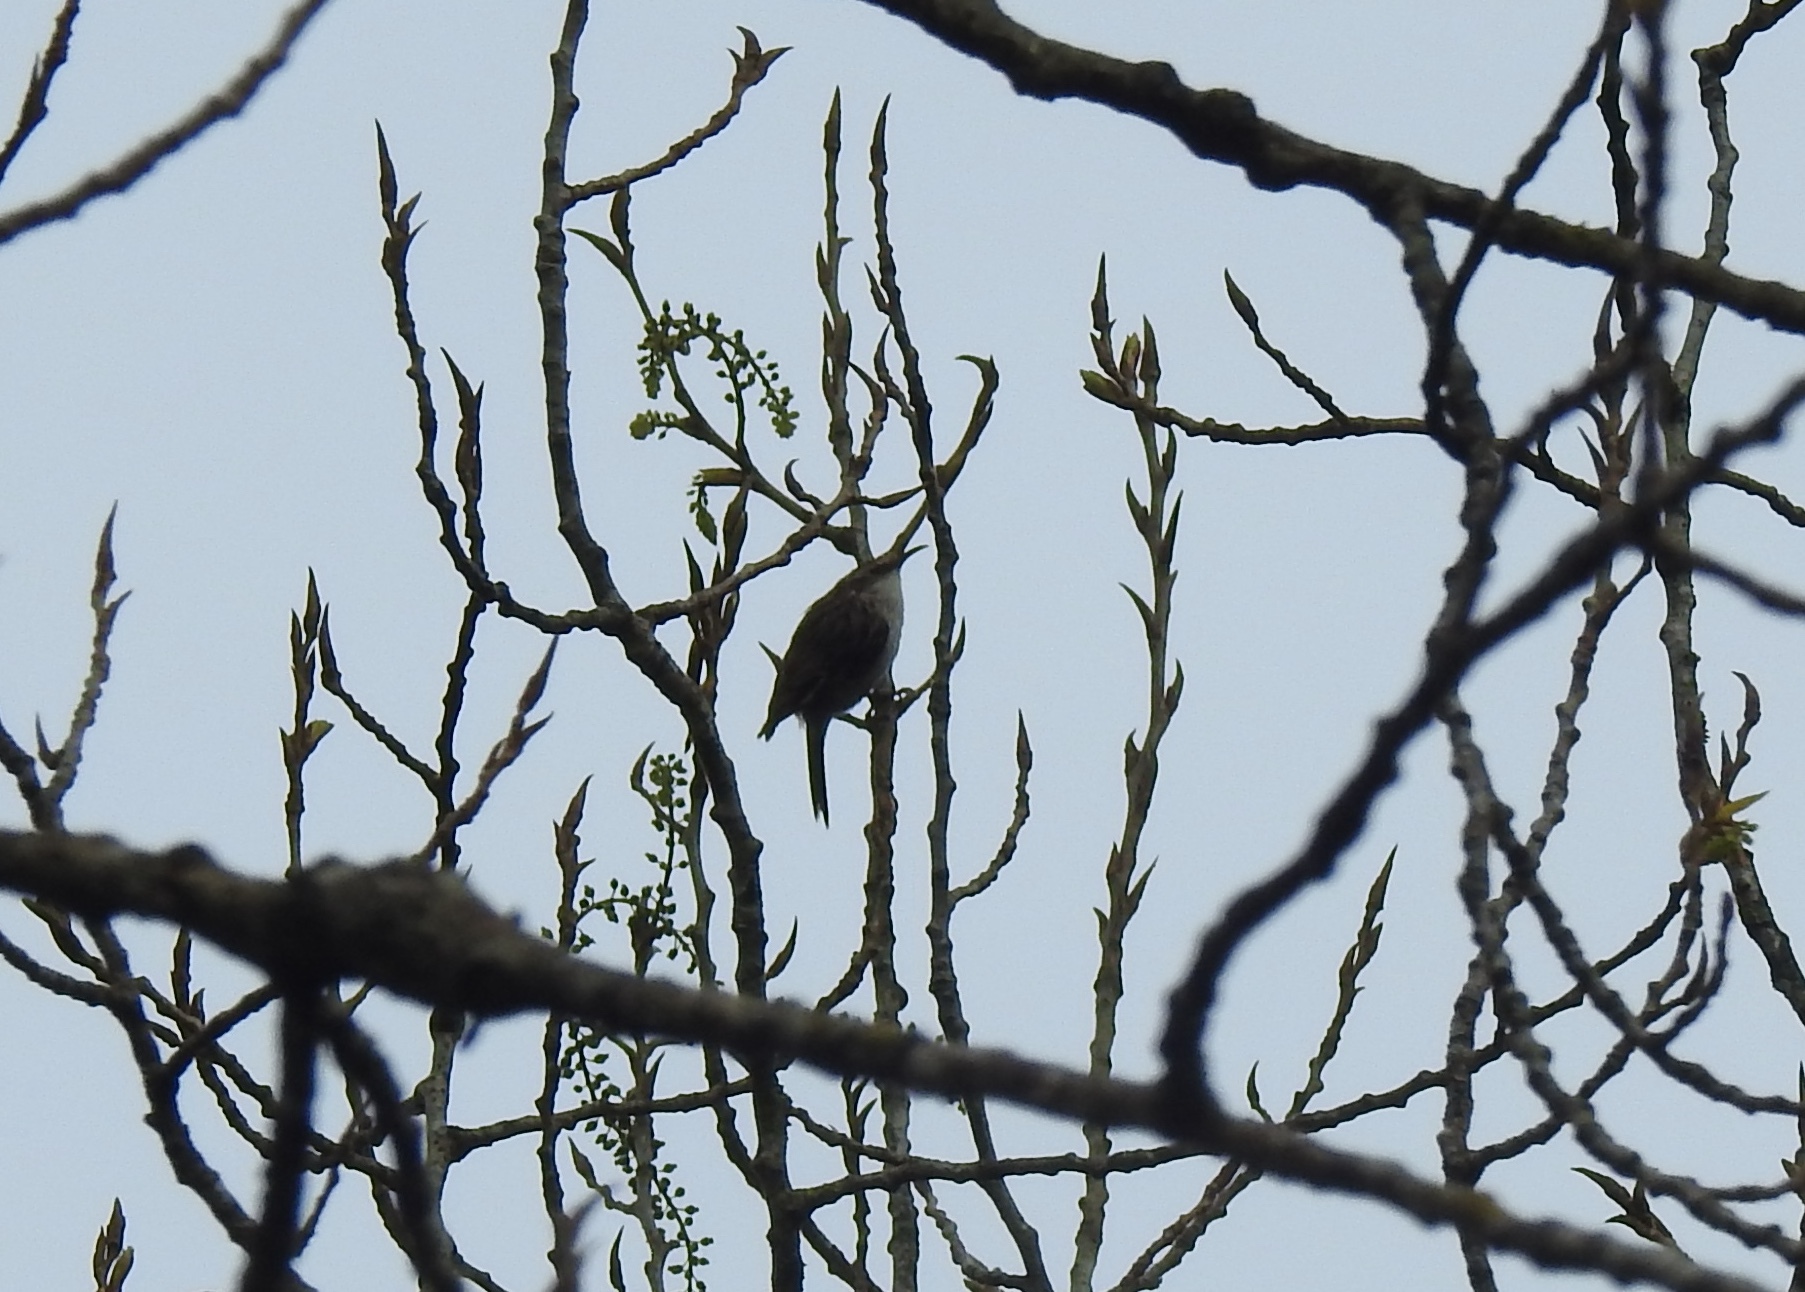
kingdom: Animalia
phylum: Chordata
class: Aves
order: Passeriformes
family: Certhiidae
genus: Certhia
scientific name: Certhia brachydactyla
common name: Short-toed treecreeper
